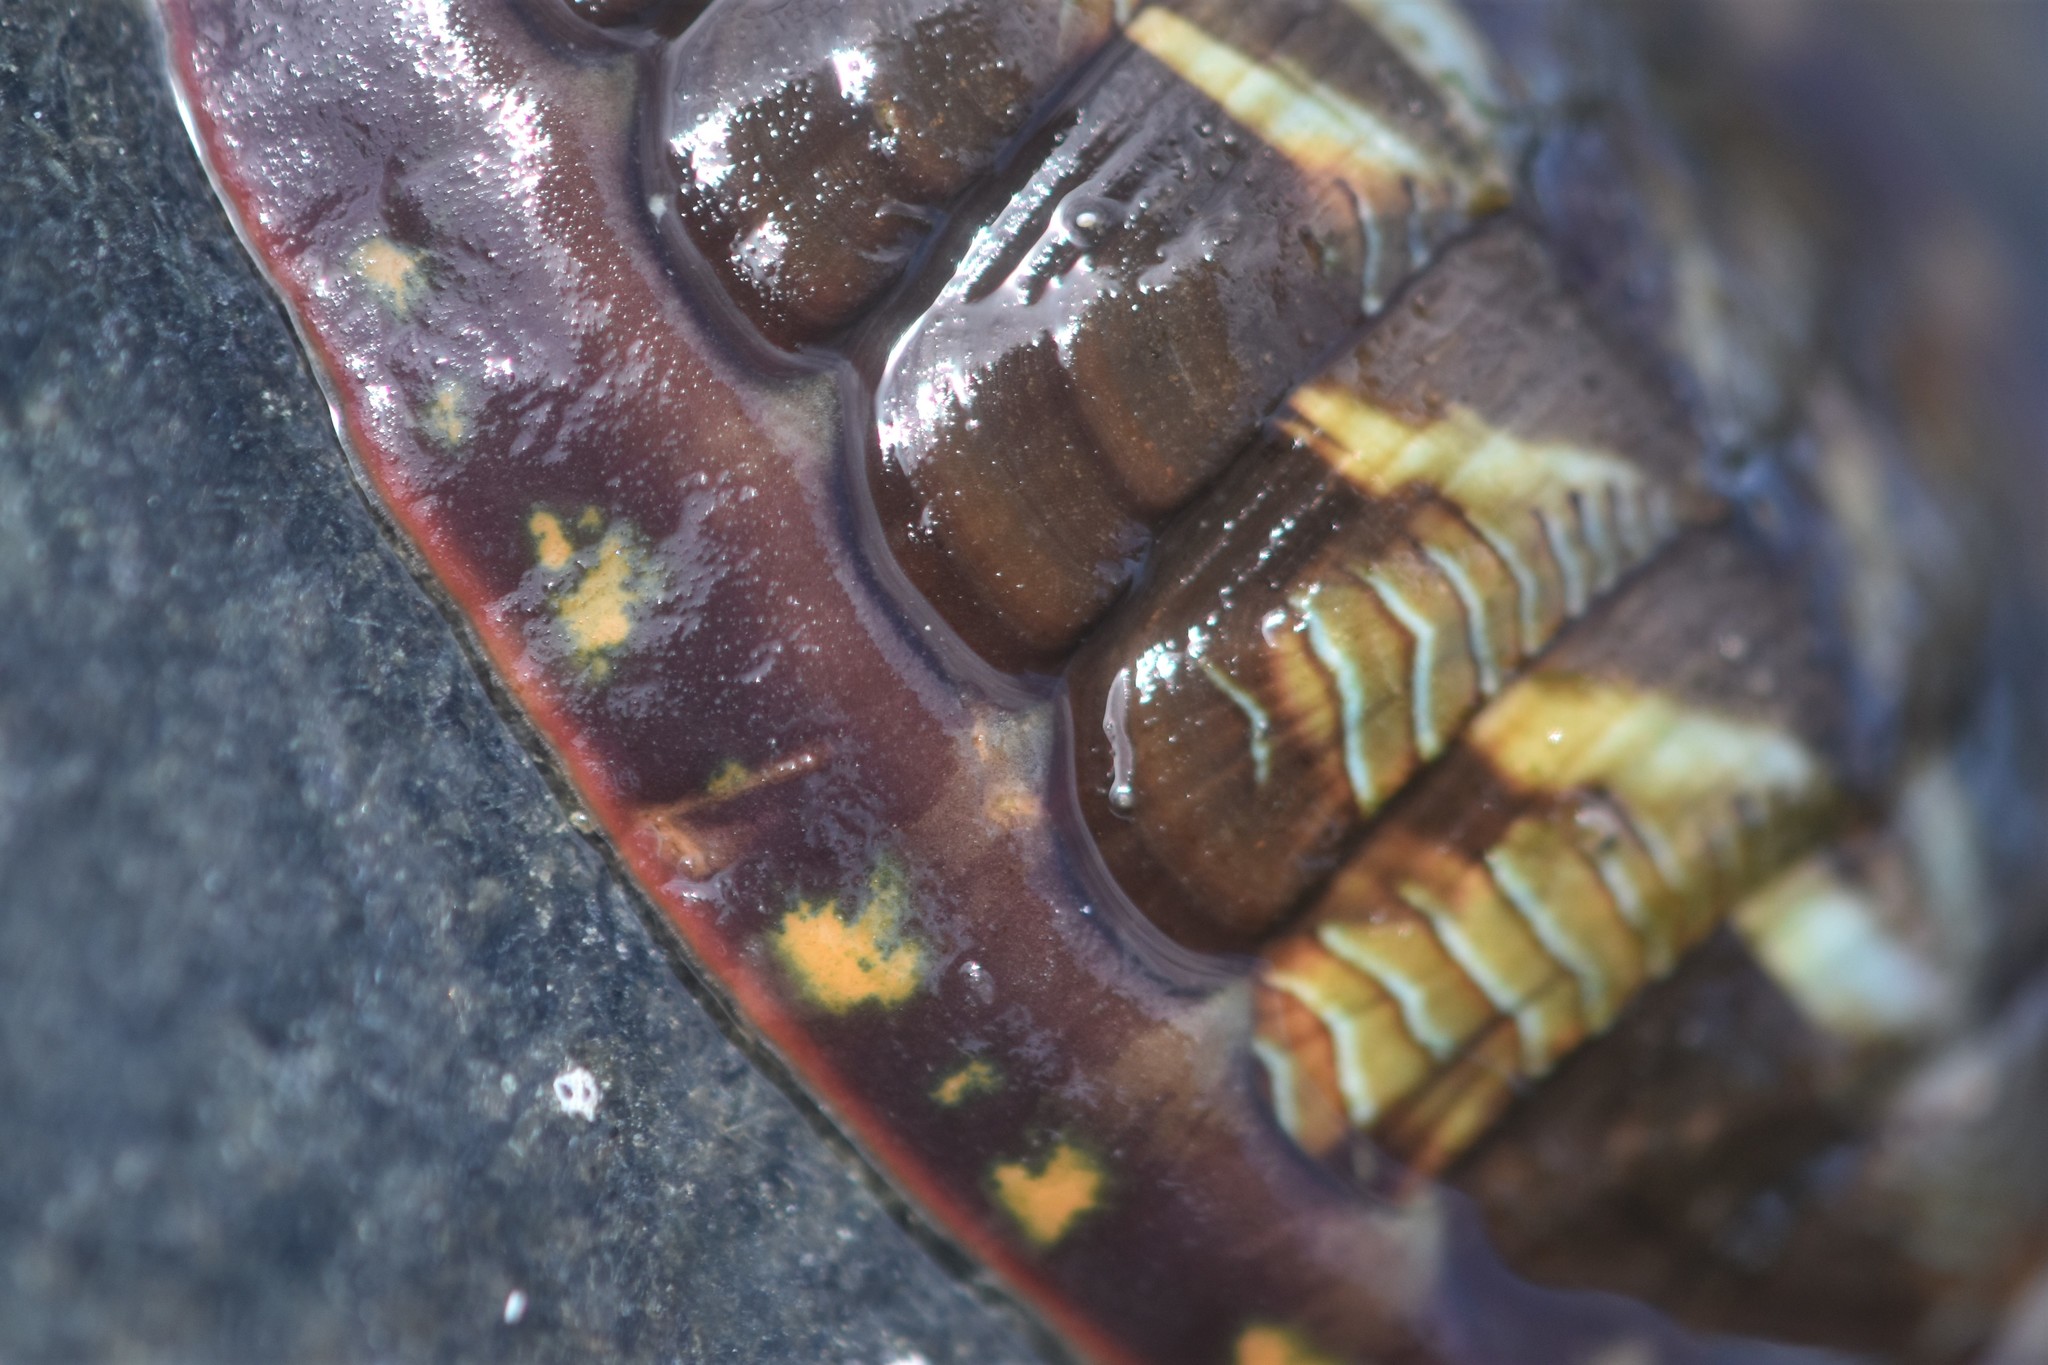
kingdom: Animalia
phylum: Mollusca
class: Polyplacophora
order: Chitonida
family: Tonicellidae
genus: Tonicella
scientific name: Tonicella lineata
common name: Lined chiton
